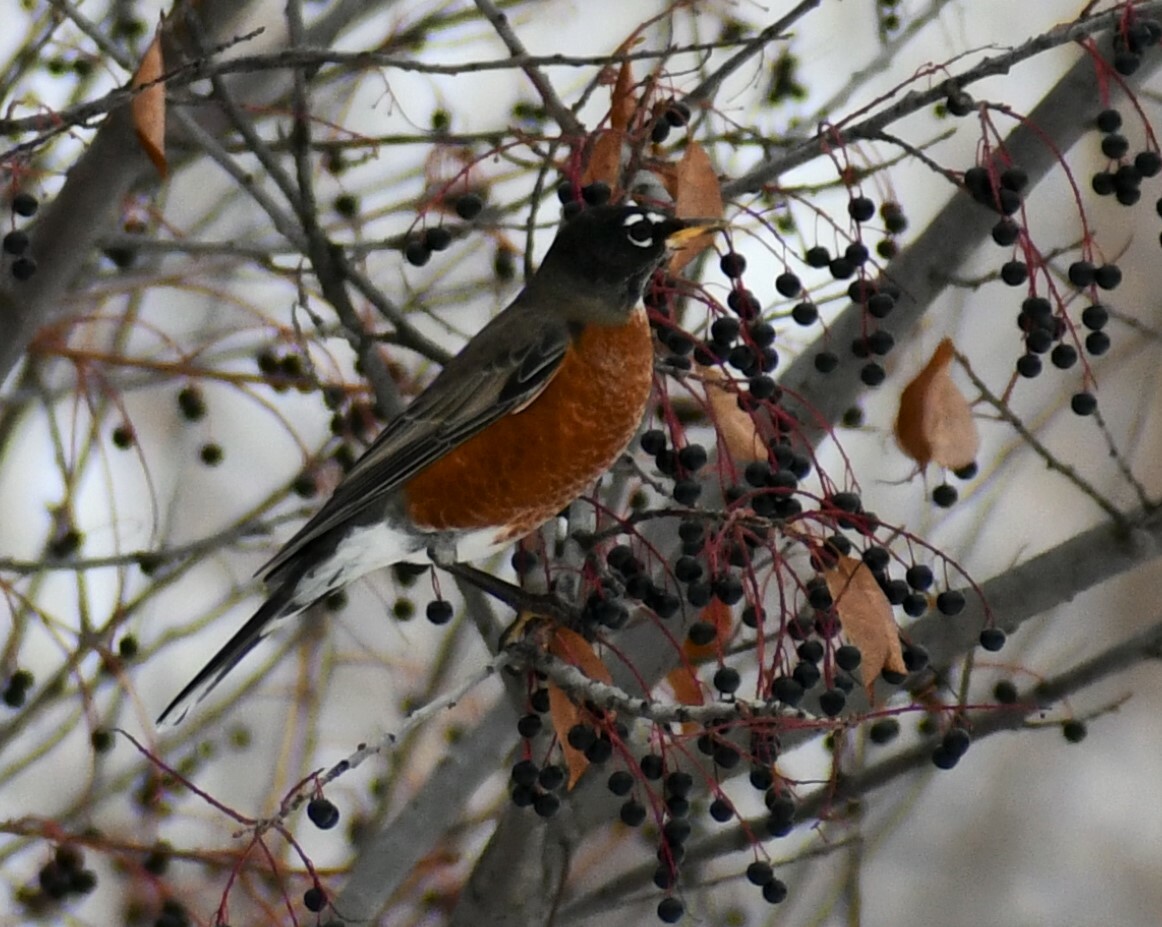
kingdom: Animalia
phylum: Chordata
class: Aves
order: Passeriformes
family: Turdidae
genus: Turdus
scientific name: Turdus migratorius
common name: American robin
